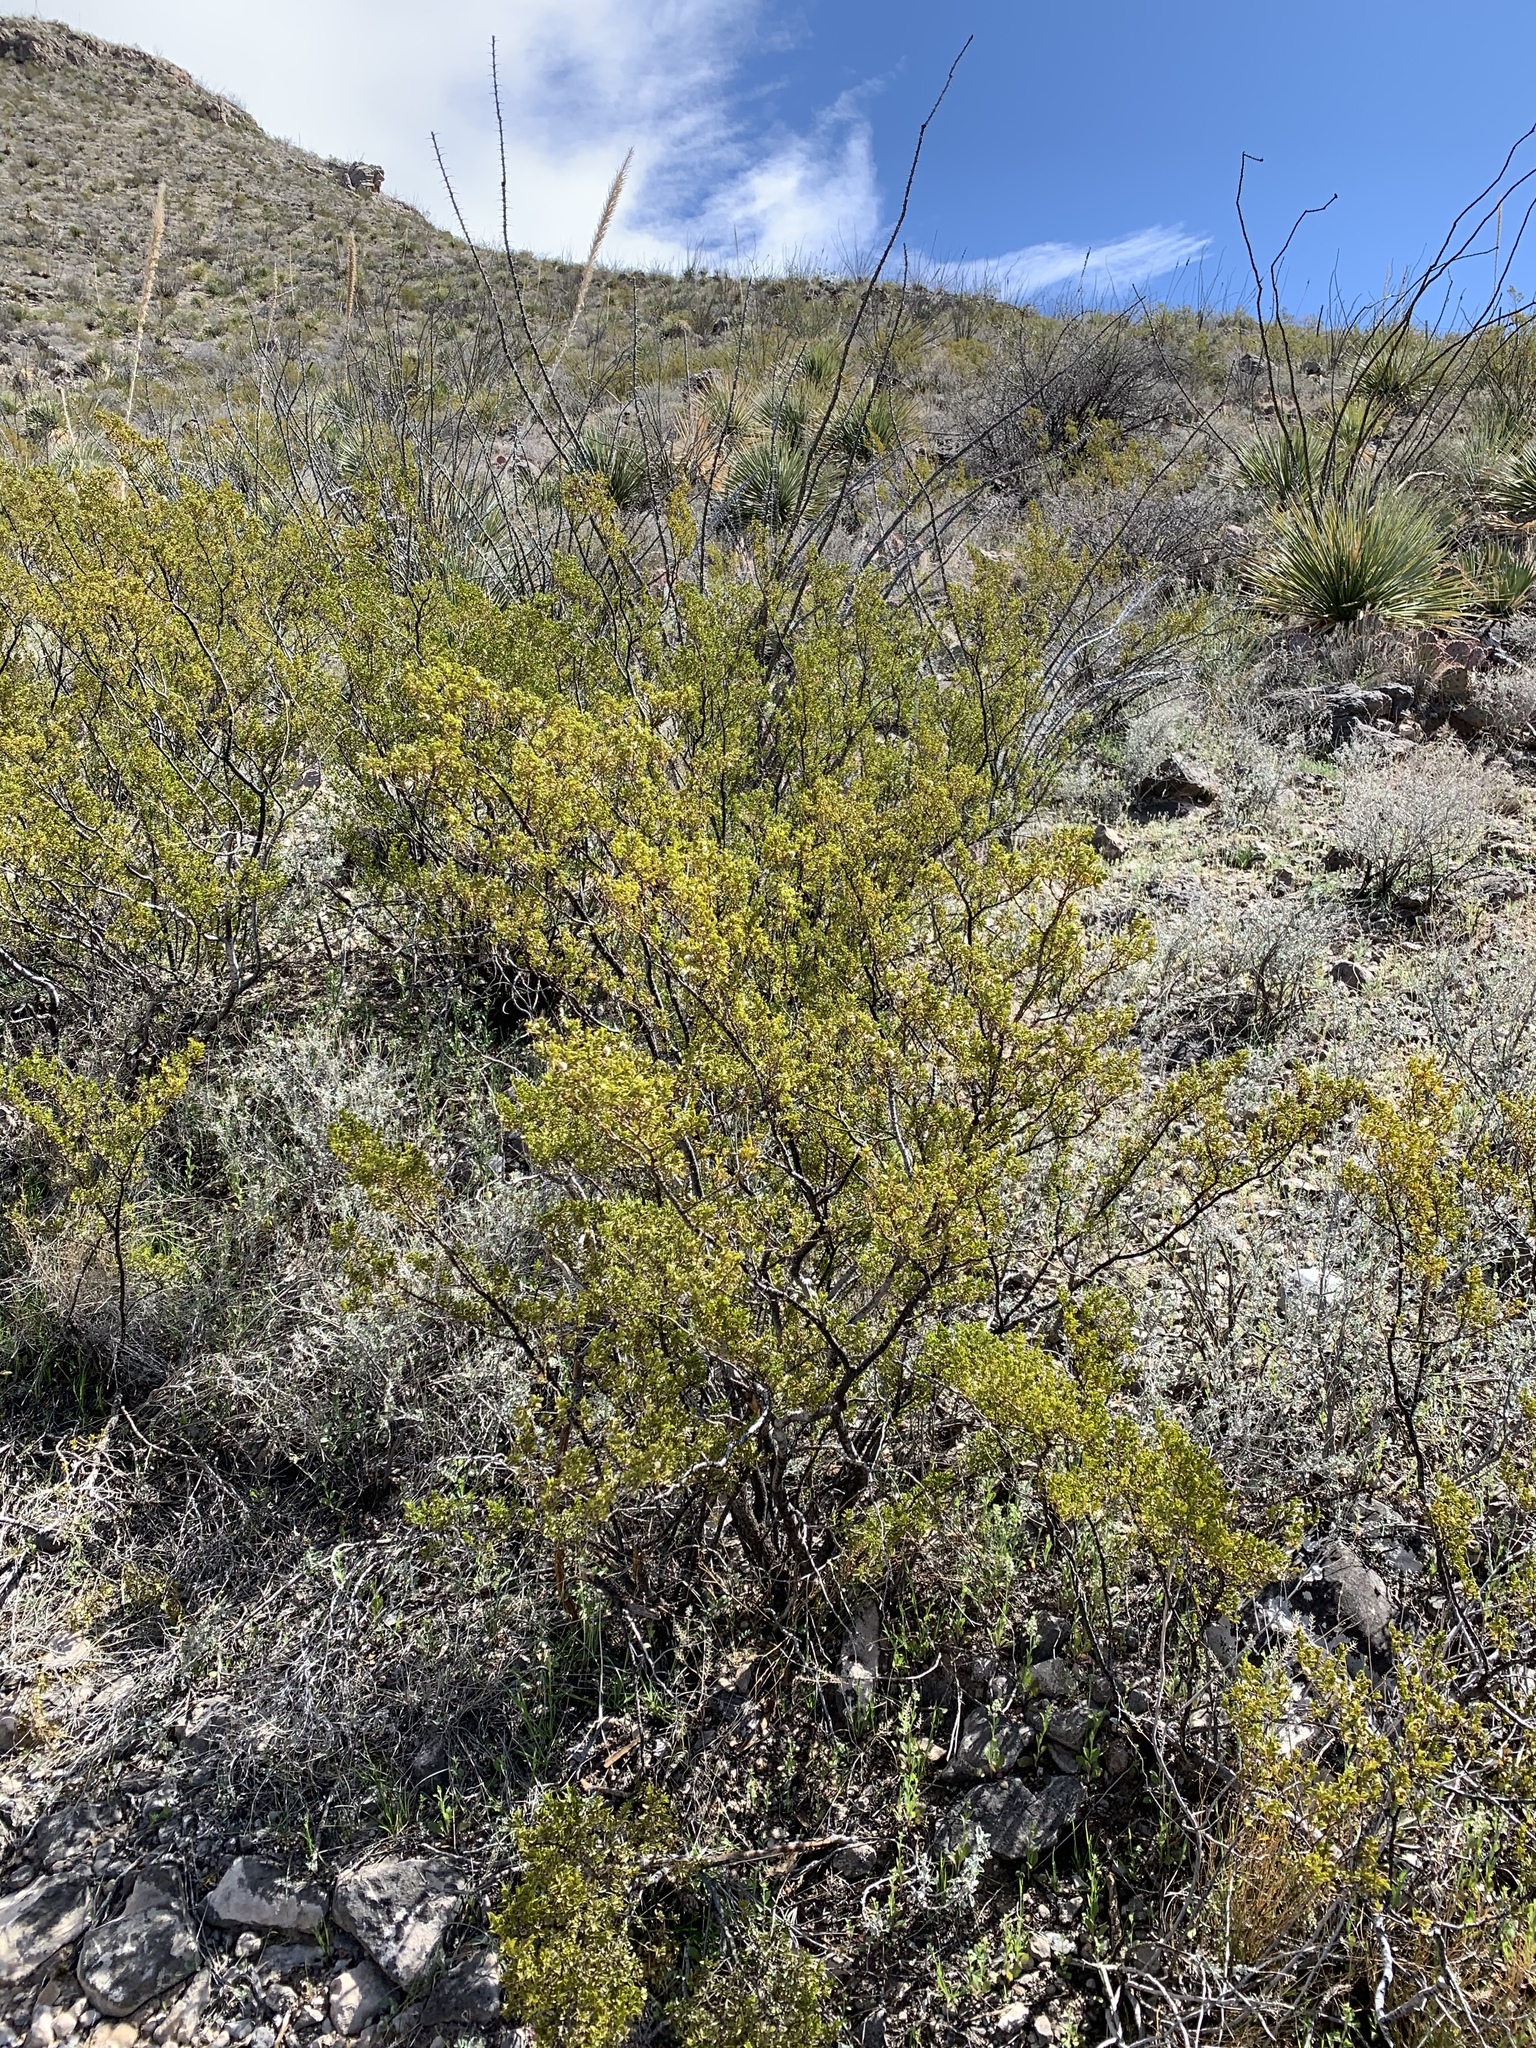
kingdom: Plantae
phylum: Tracheophyta
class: Magnoliopsida
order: Zygophyllales
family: Zygophyllaceae
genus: Larrea
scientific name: Larrea tridentata
